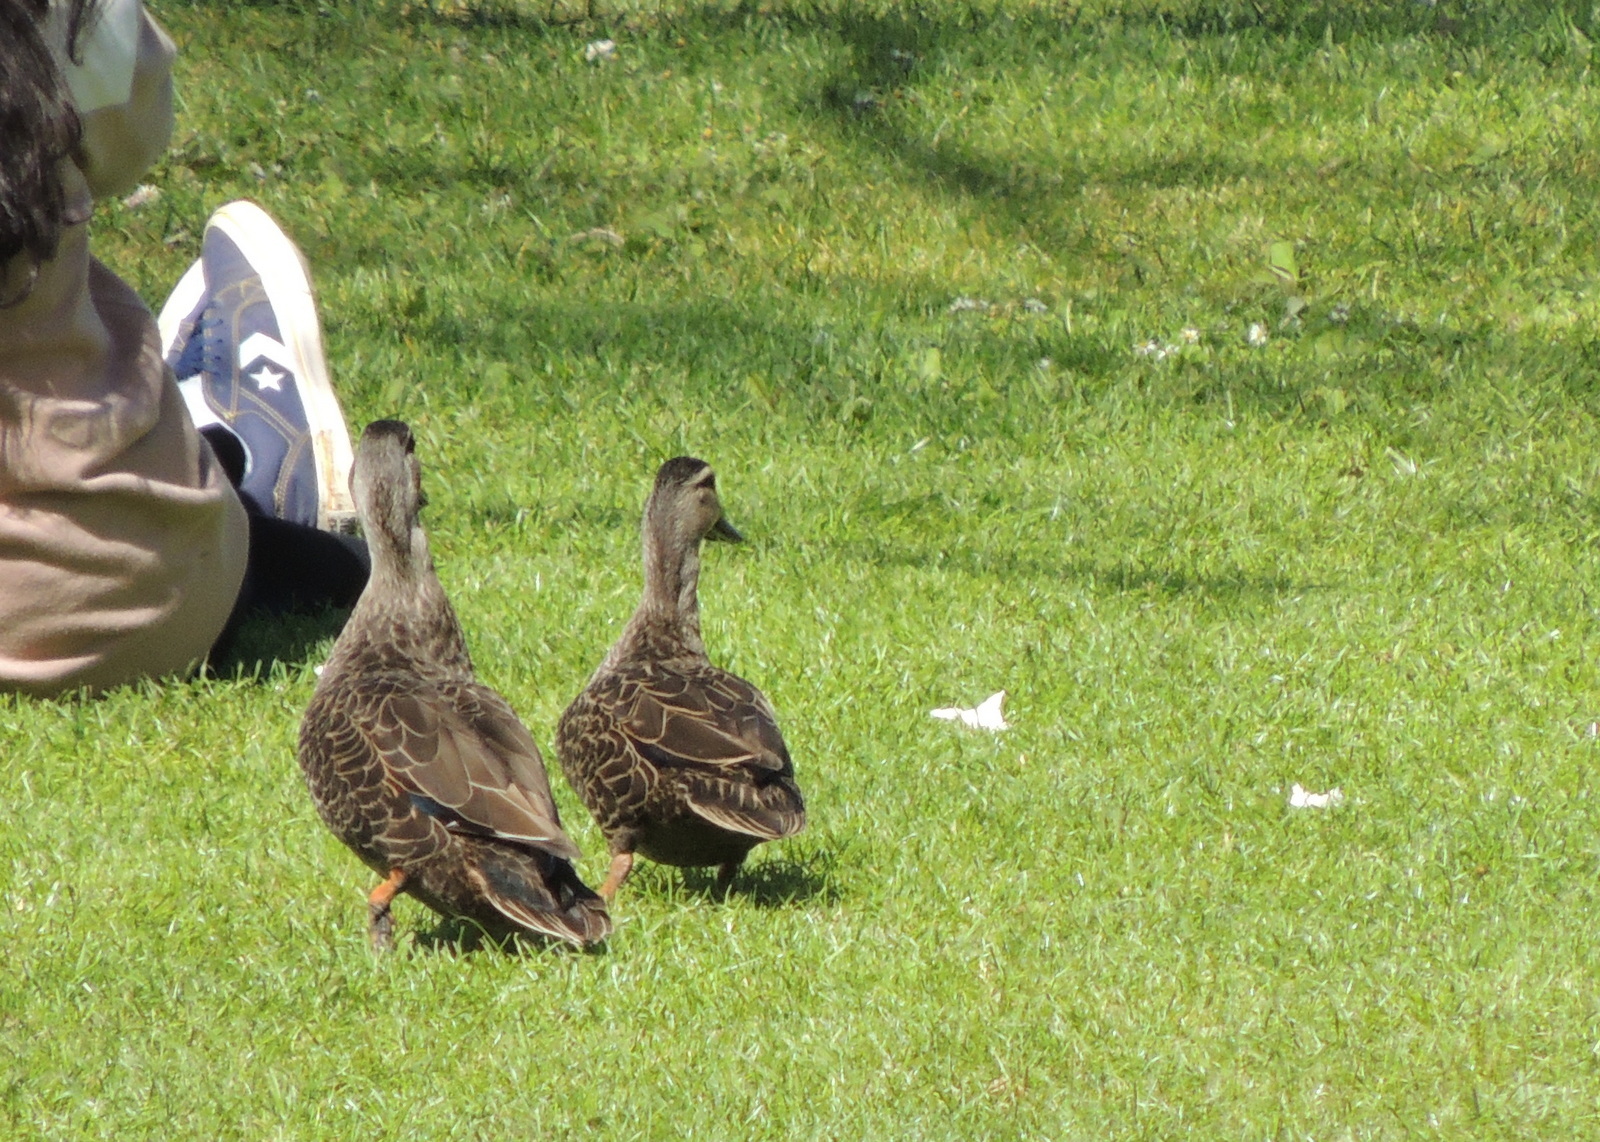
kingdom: Animalia
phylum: Chordata
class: Aves
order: Anseriformes
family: Anatidae
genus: Anas
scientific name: Anas
